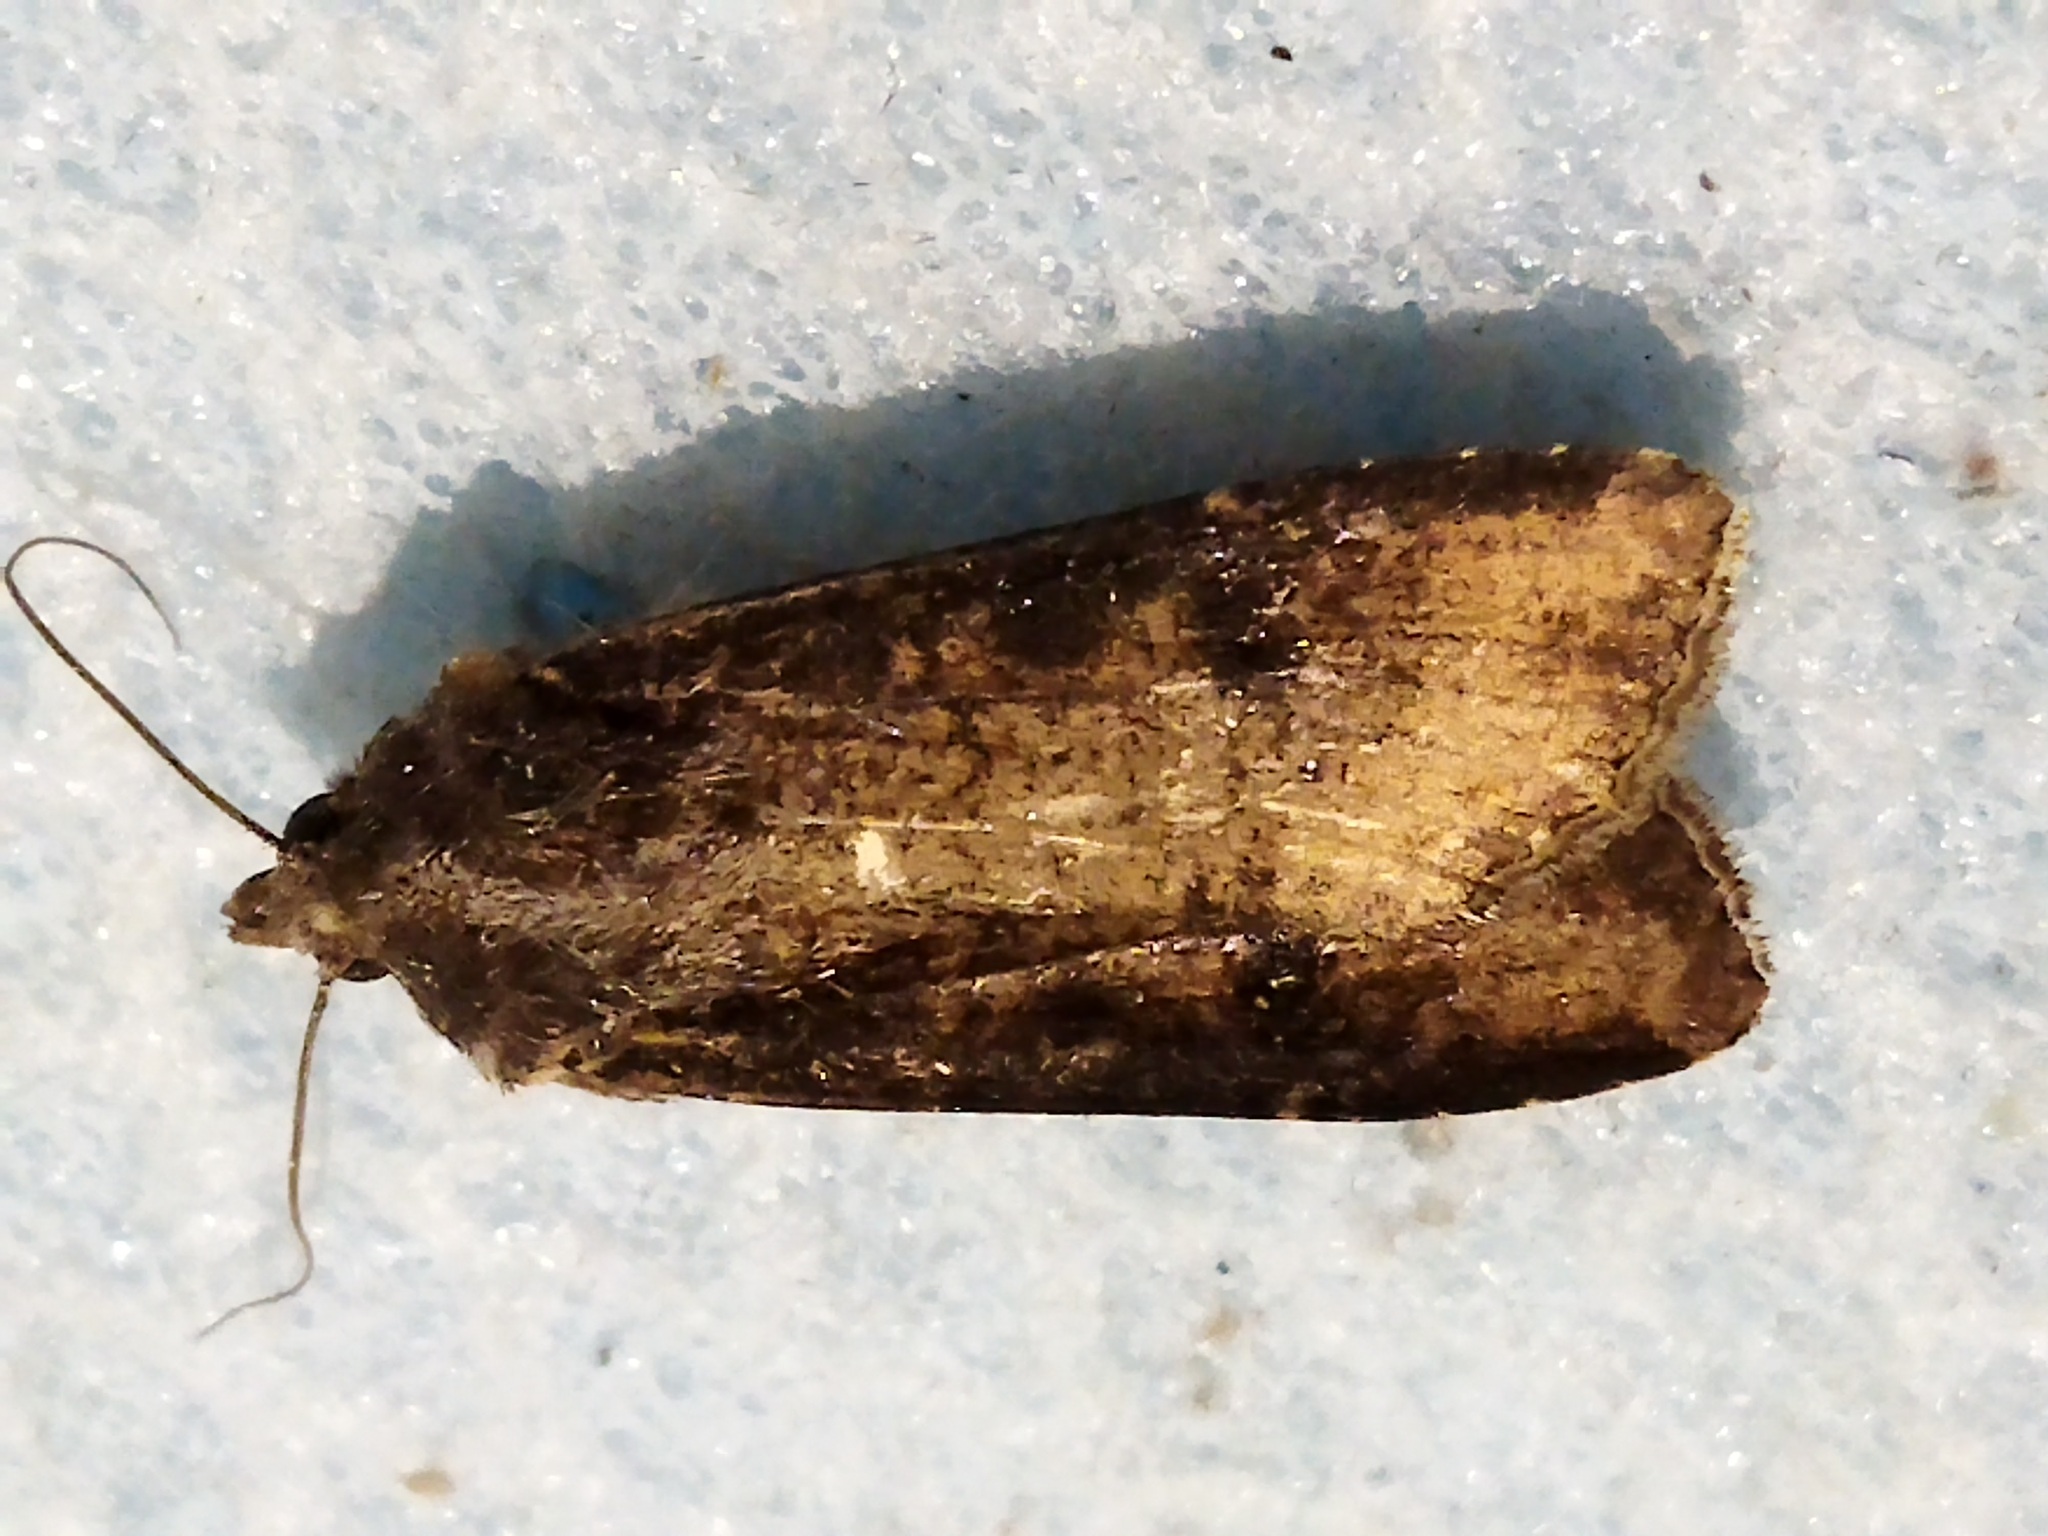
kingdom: Animalia
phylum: Arthropoda
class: Insecta
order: Lepidoptera
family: Noctuidae
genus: Peridroma
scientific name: Peridroma saucia
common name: Pearly underwing
